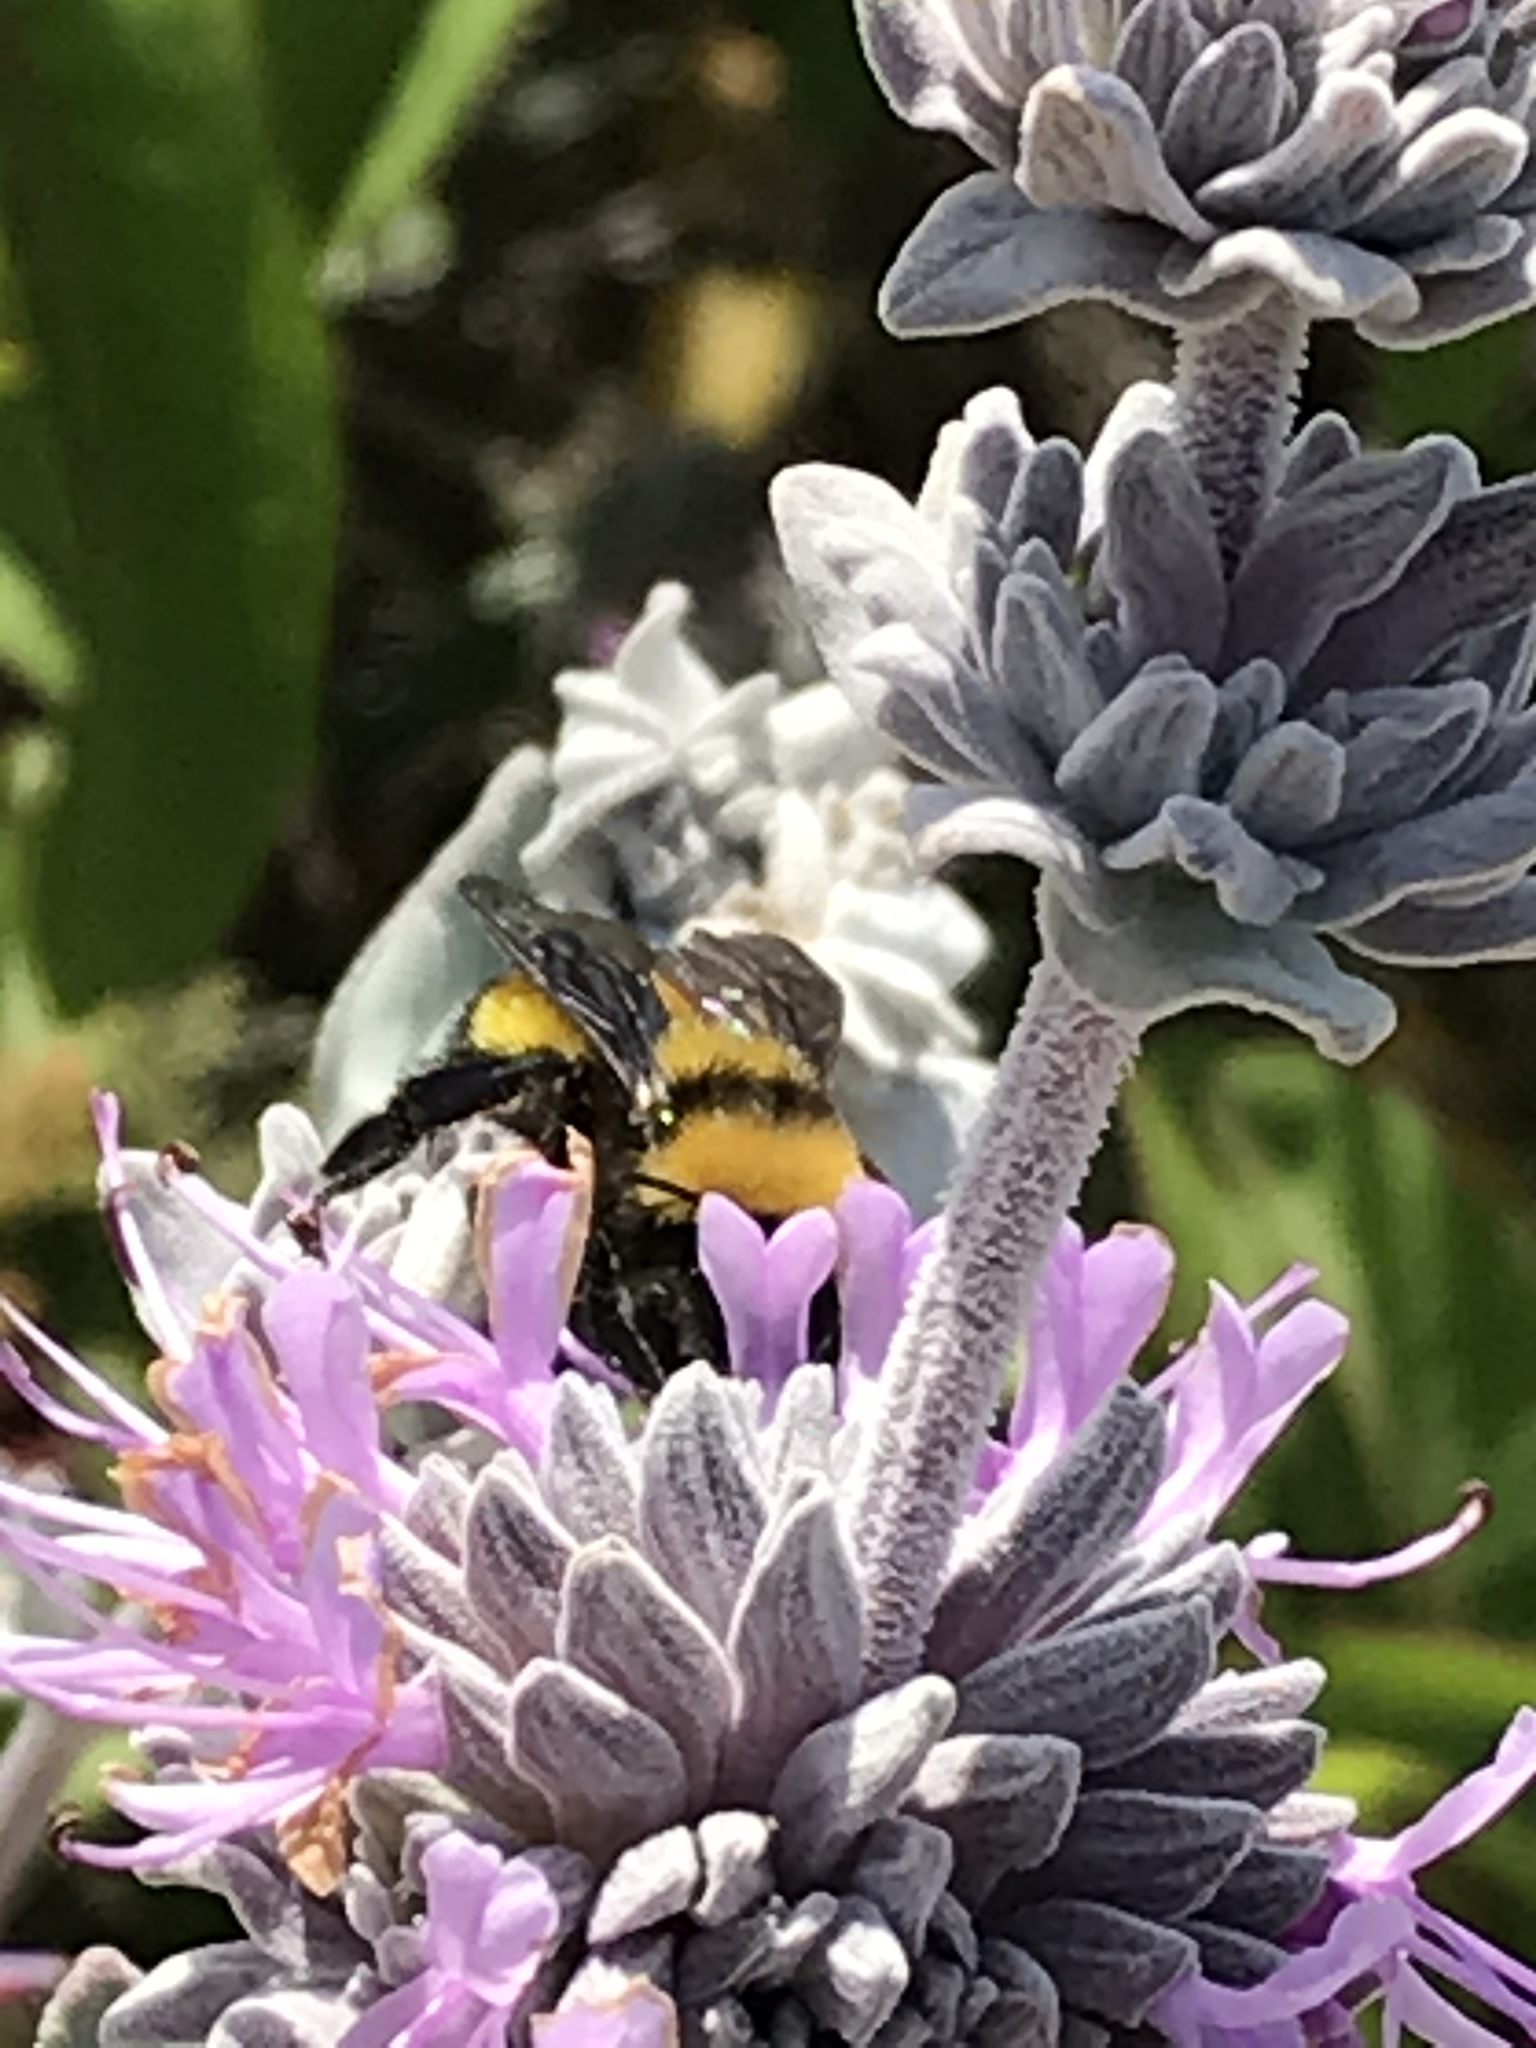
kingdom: Animalia
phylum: Arthropoda
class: Insecta
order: Hymenoptera
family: Apidae
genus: Bombus
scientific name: Bombus sonorus
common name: Sonoran bumble bee
